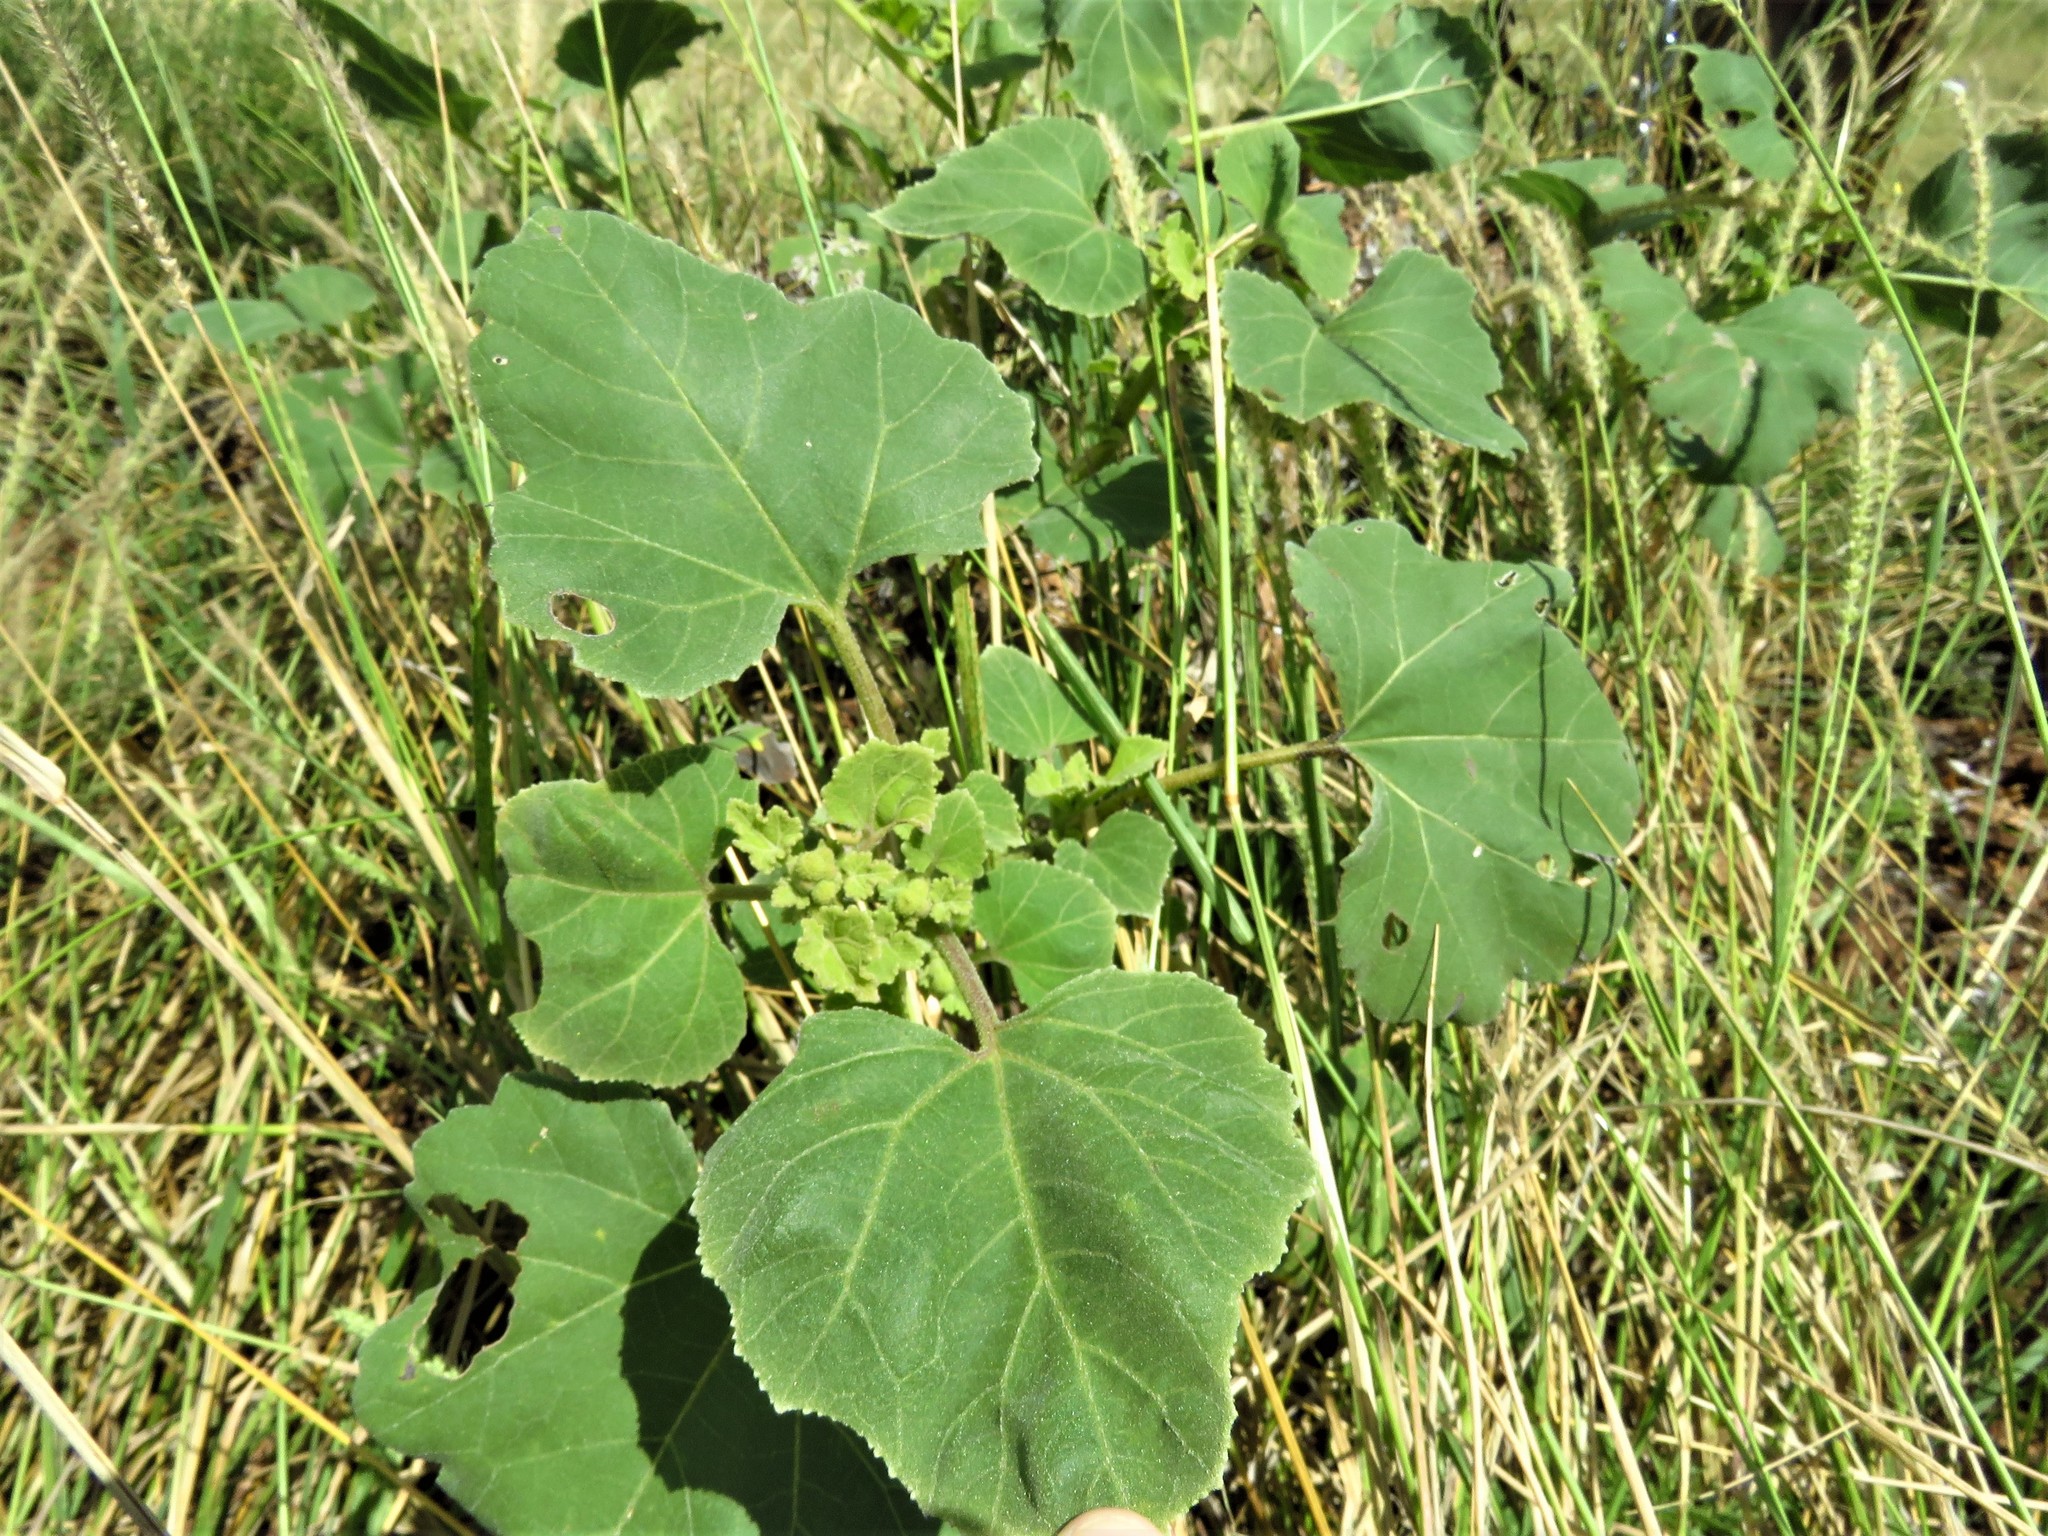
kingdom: Plantae
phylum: Tracheophyta
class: Magnoliopsida
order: Asterales
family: Asteraceae
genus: Xanthium
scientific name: Xanthium strumarium
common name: Rough cocklebur
